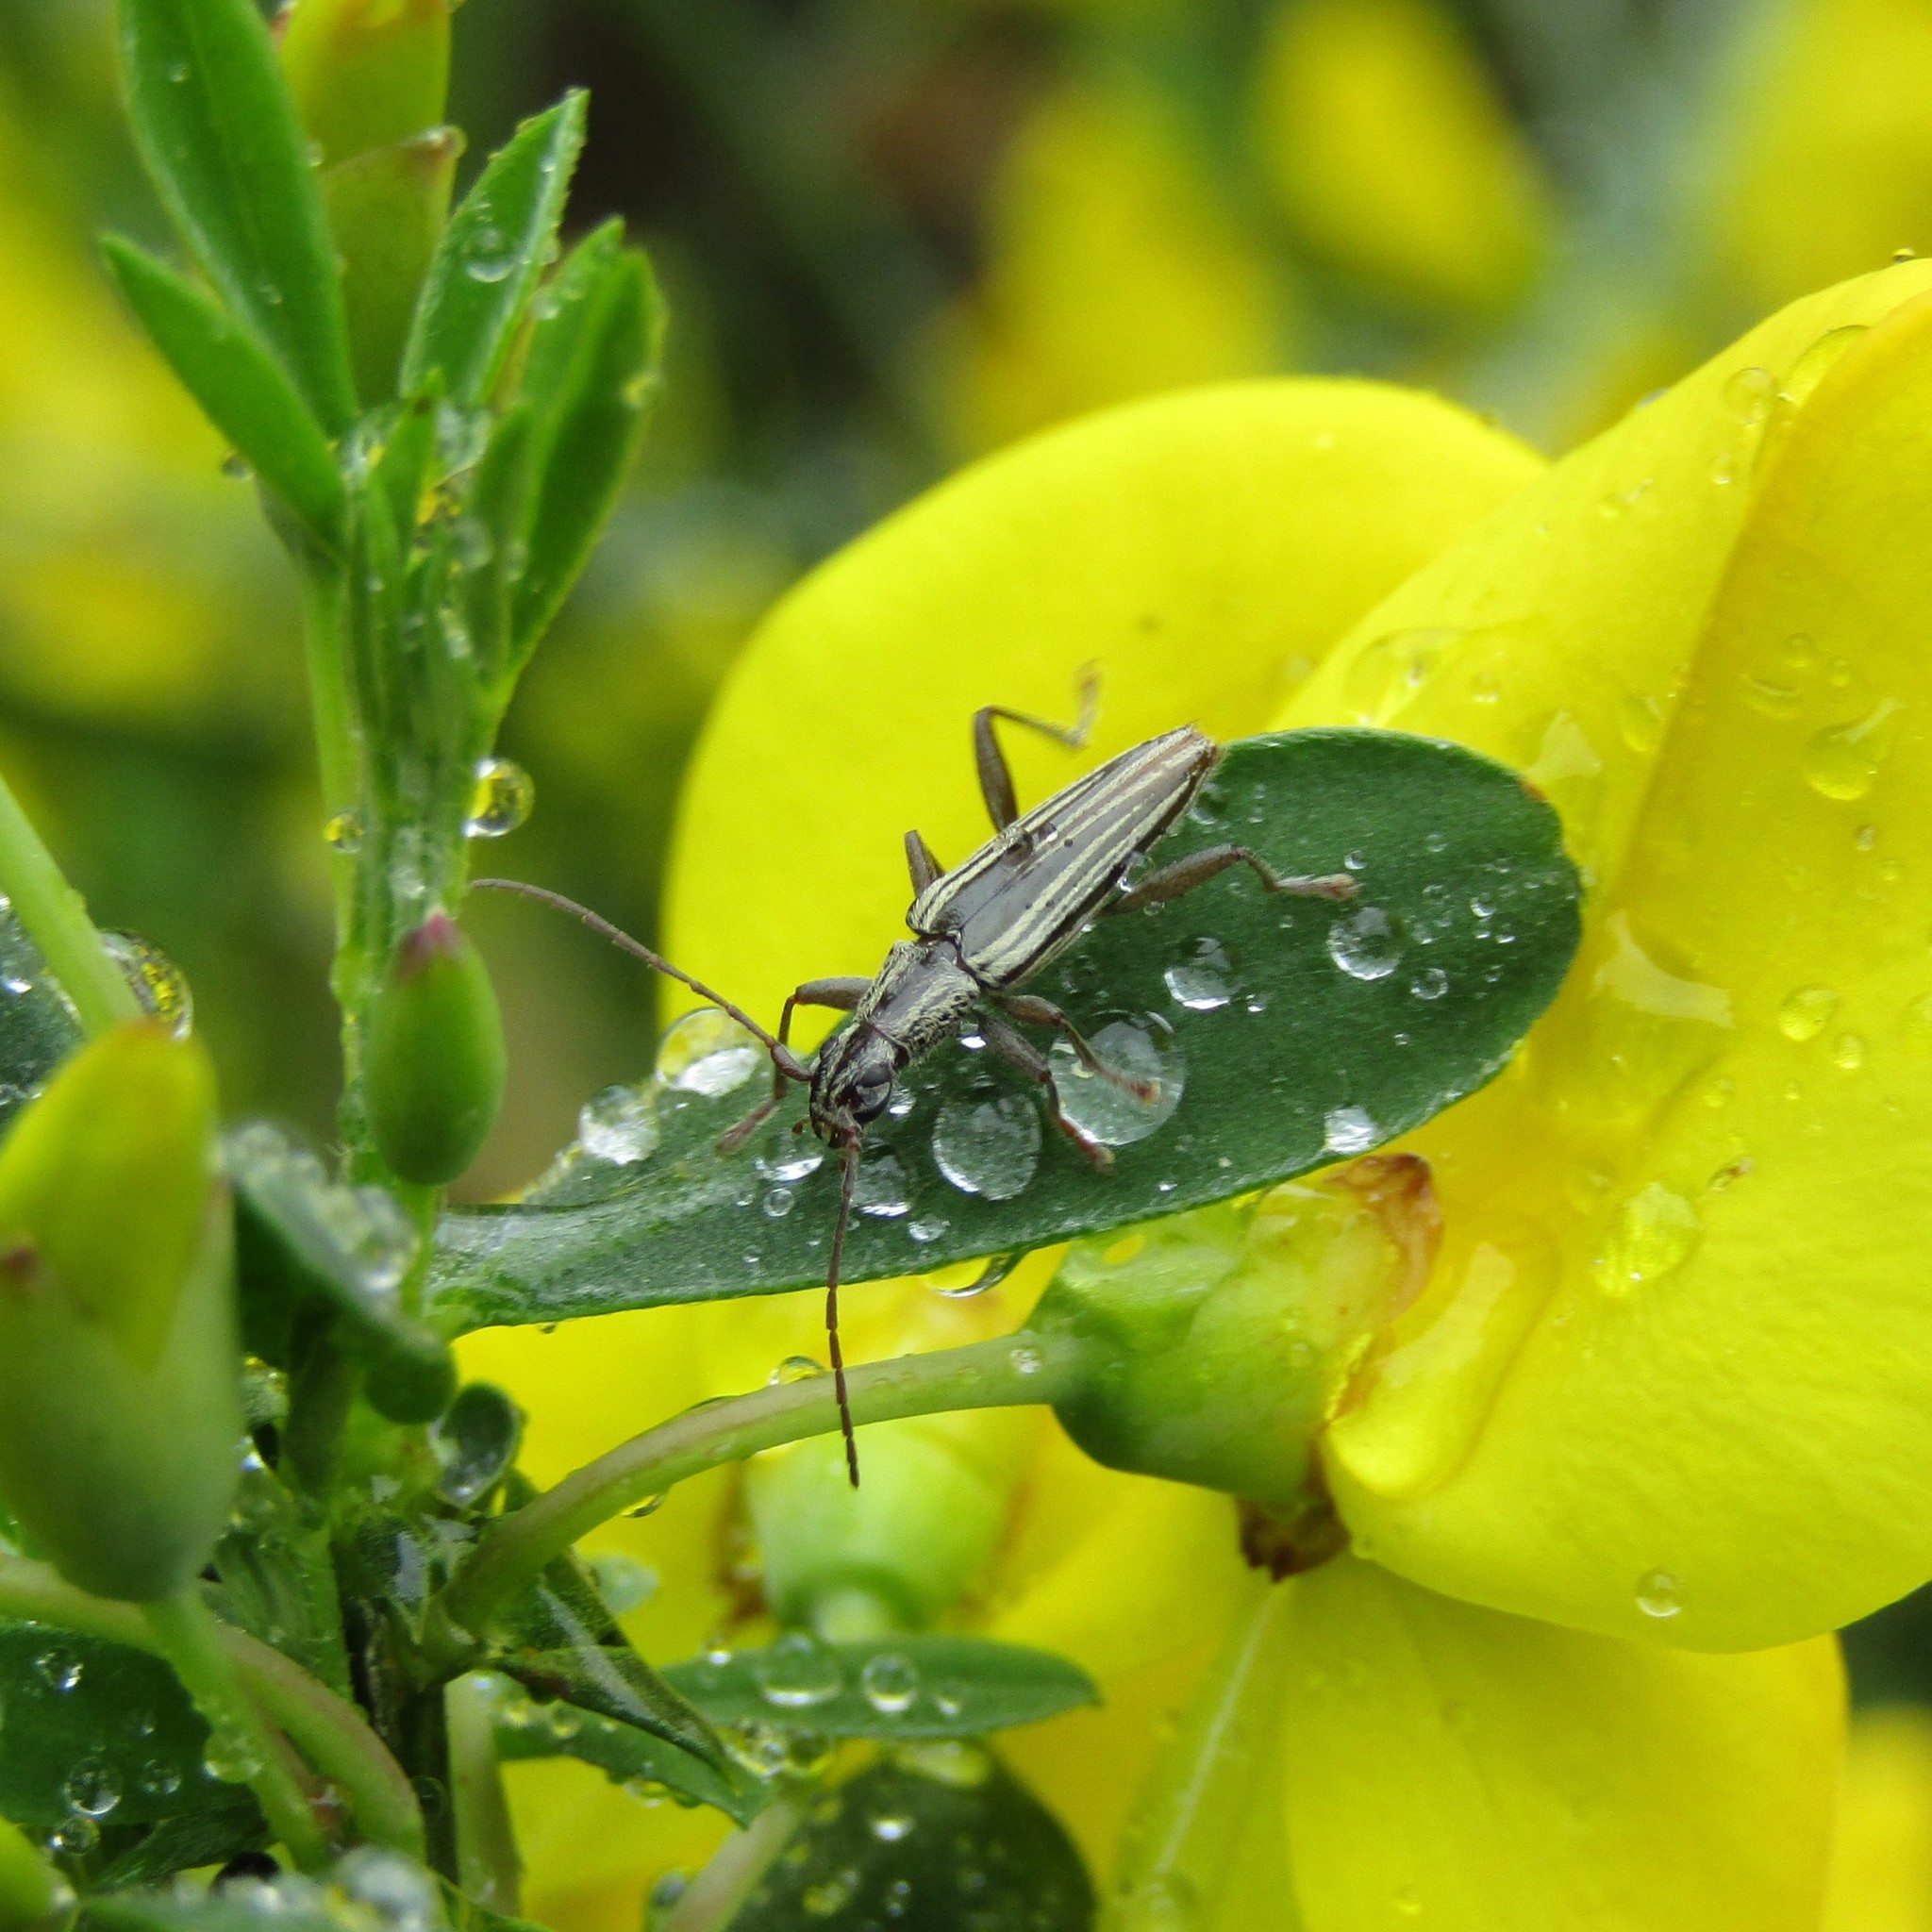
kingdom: Animalia
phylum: Arthropoda
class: Insecta
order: Coleoptera
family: Cerambycidae
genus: Coptomma
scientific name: Coptomma sulcatum
